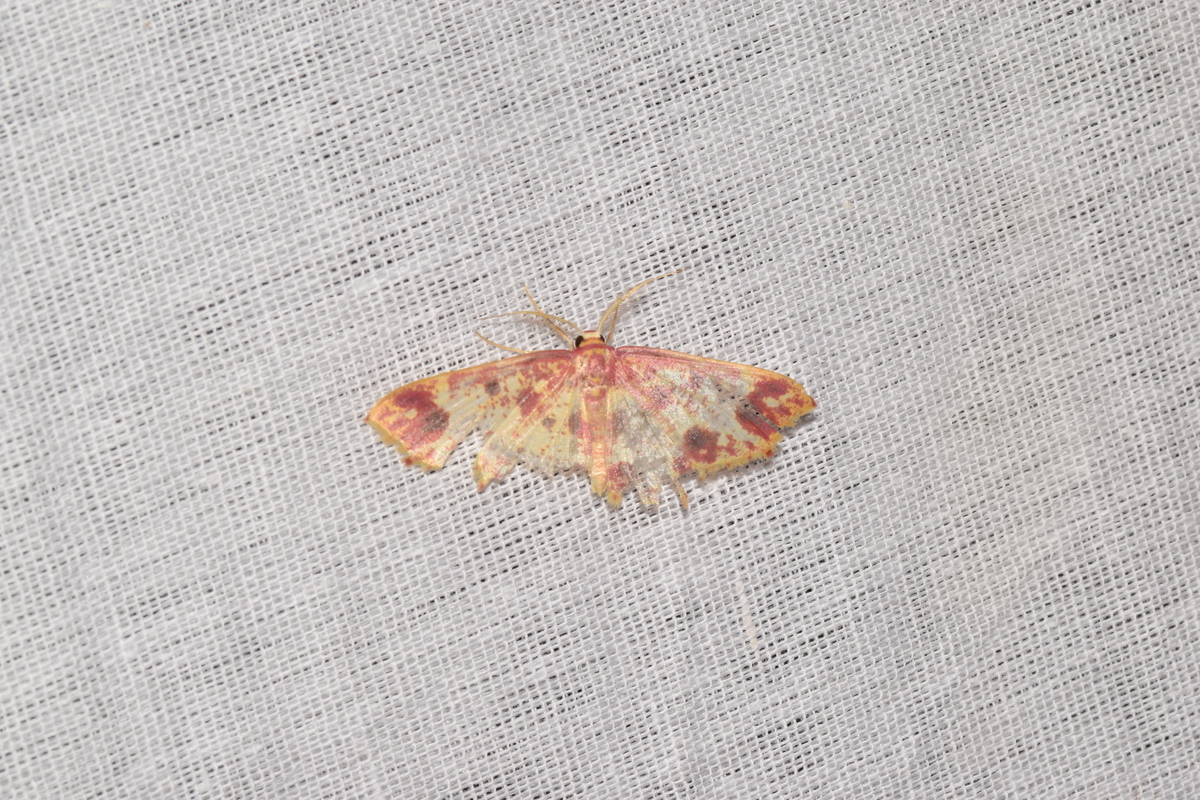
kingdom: Animalia
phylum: Arthropoda
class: Insecta
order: Lepidoptera
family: Geometridae
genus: Synegiodes
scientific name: Synegiodes sanguinaria
